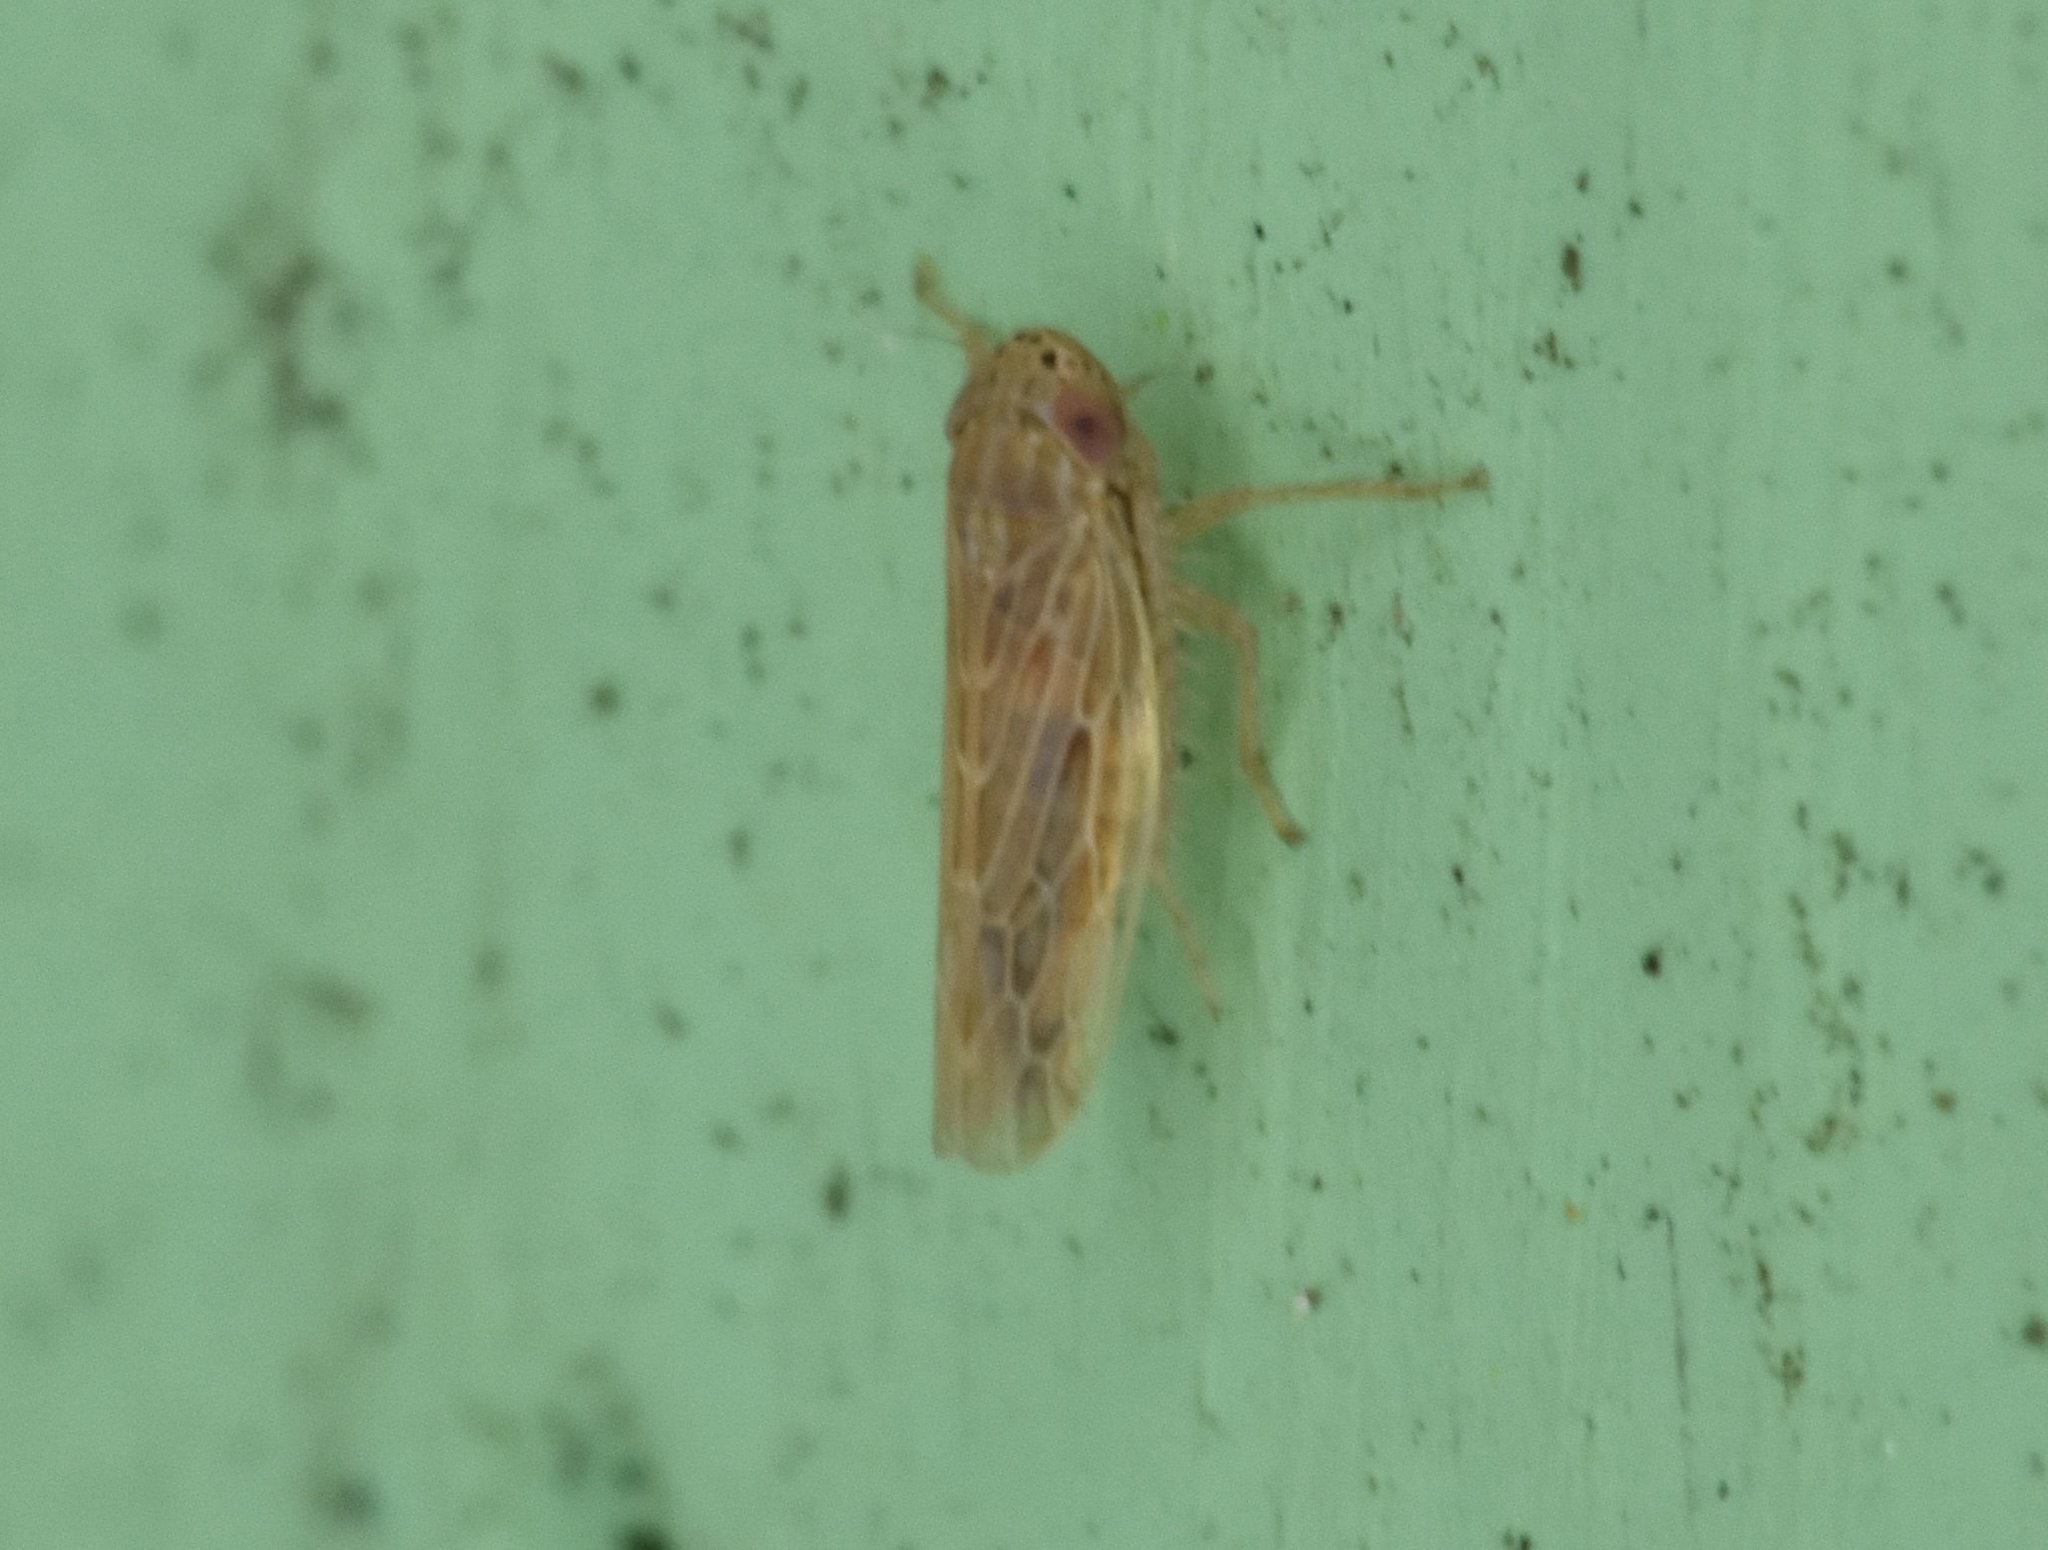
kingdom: Animalia
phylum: Arthropoda
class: Insecta
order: Hemiptera
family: Cicadellidae
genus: Graminella
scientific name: Graminella sonora
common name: Lesser lawn leafhopper
